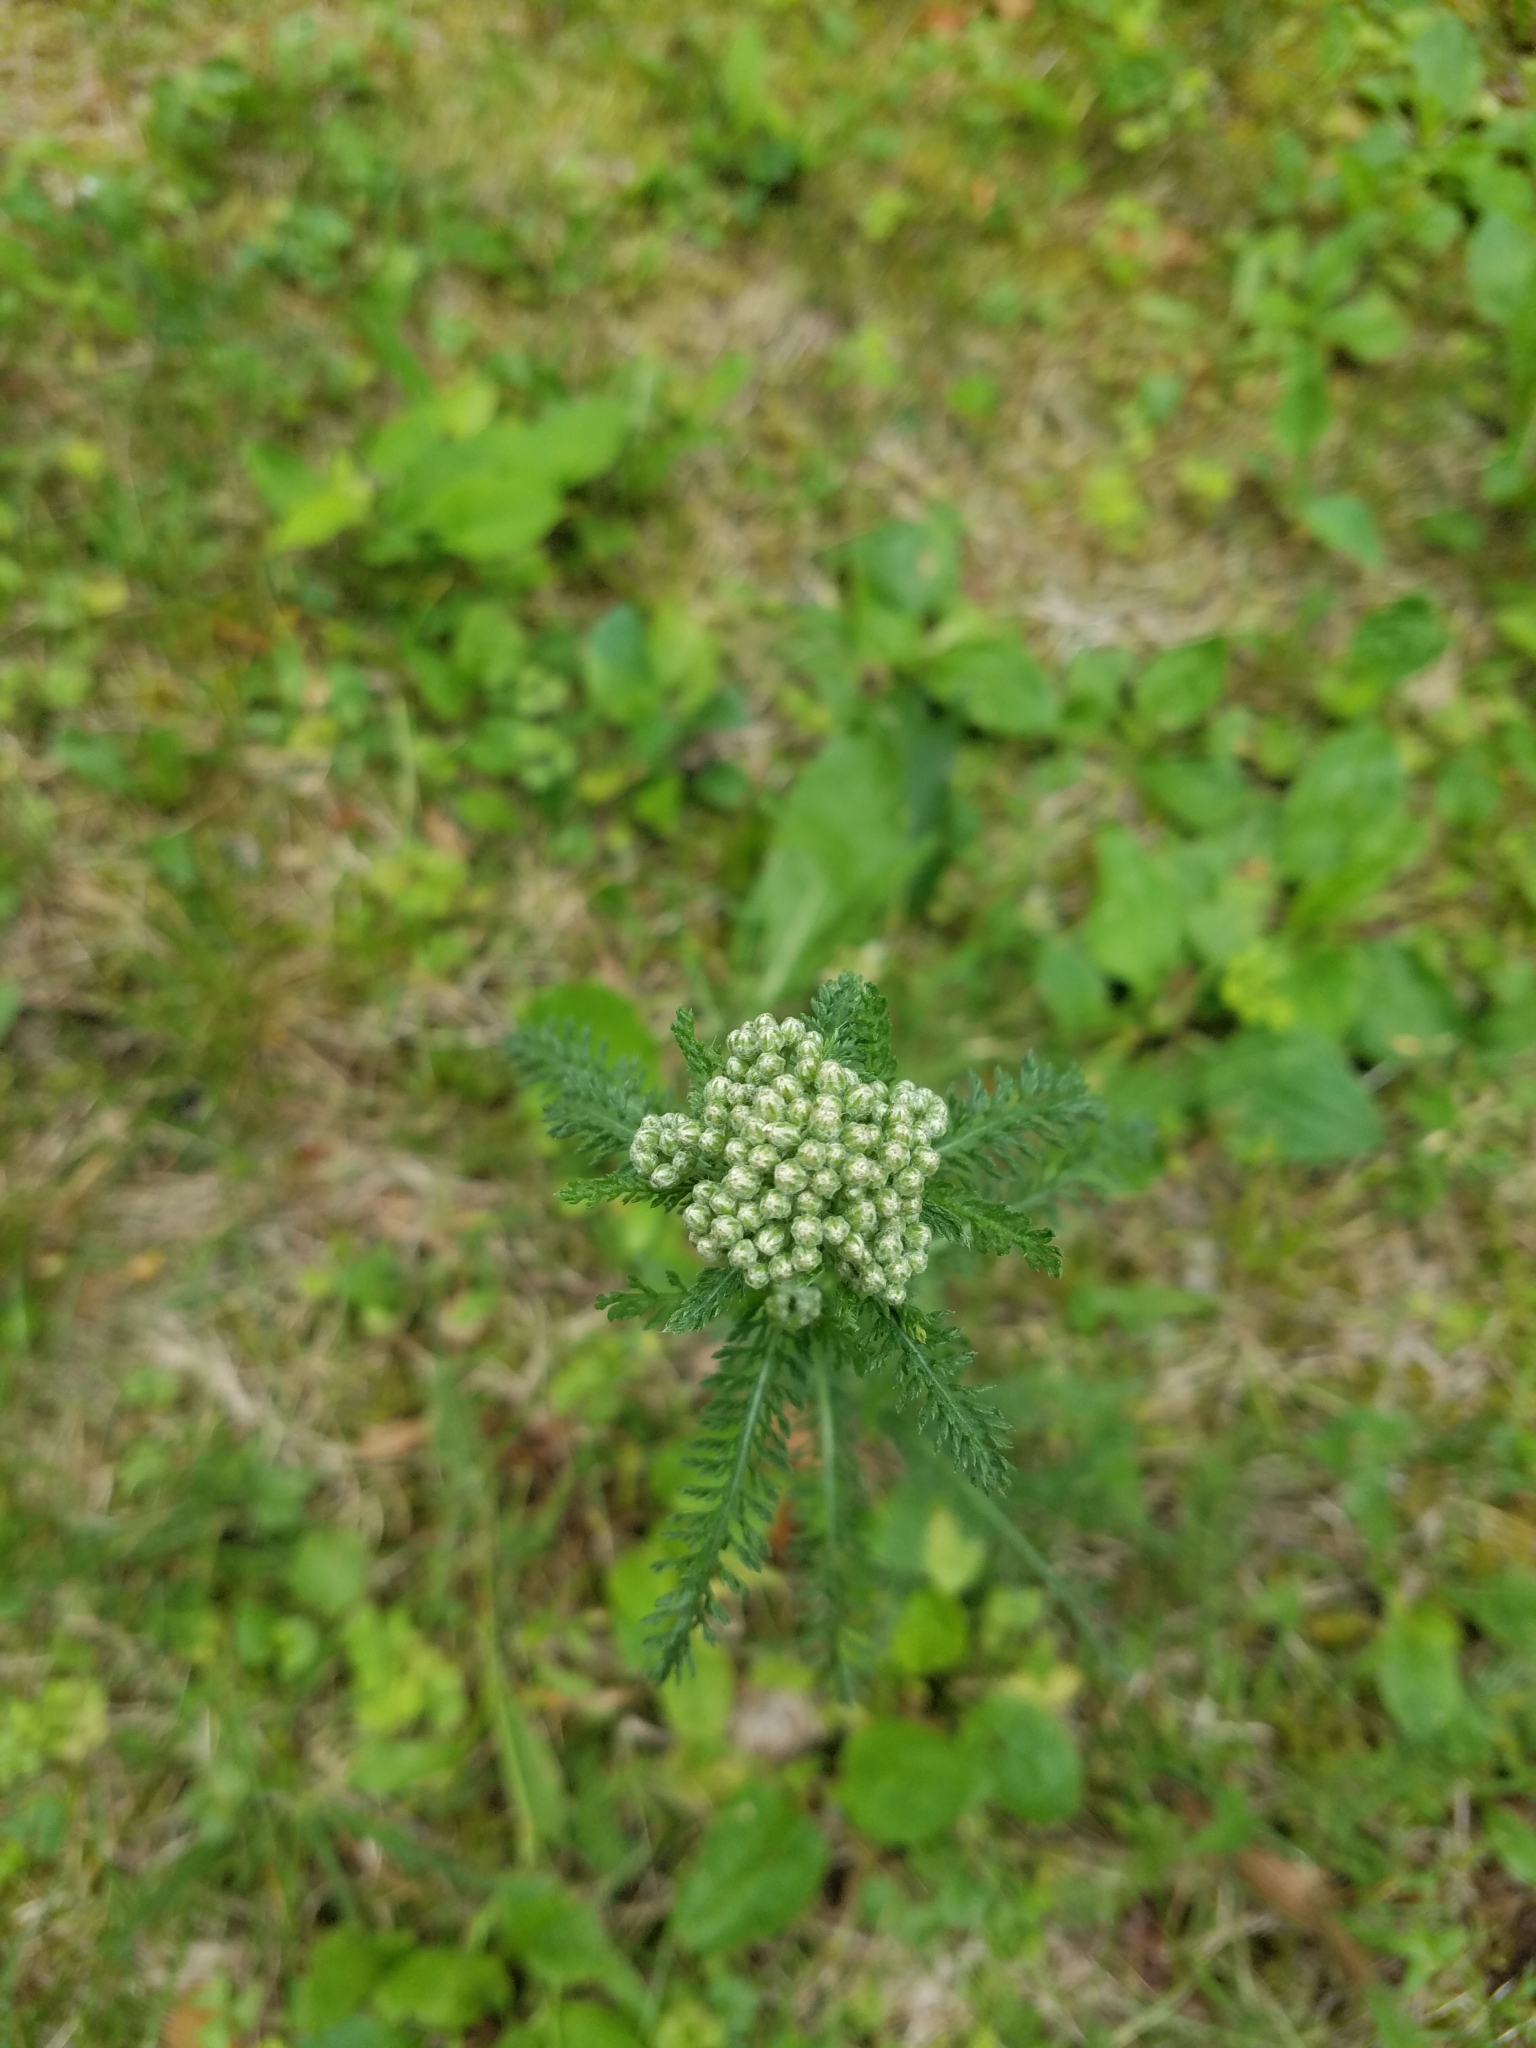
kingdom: Plantae
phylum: Tracheophyta
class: Magnoliopsida
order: Asterales
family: Asteraceae
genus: Achillea
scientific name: Achillea millefolium
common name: Yarrow
